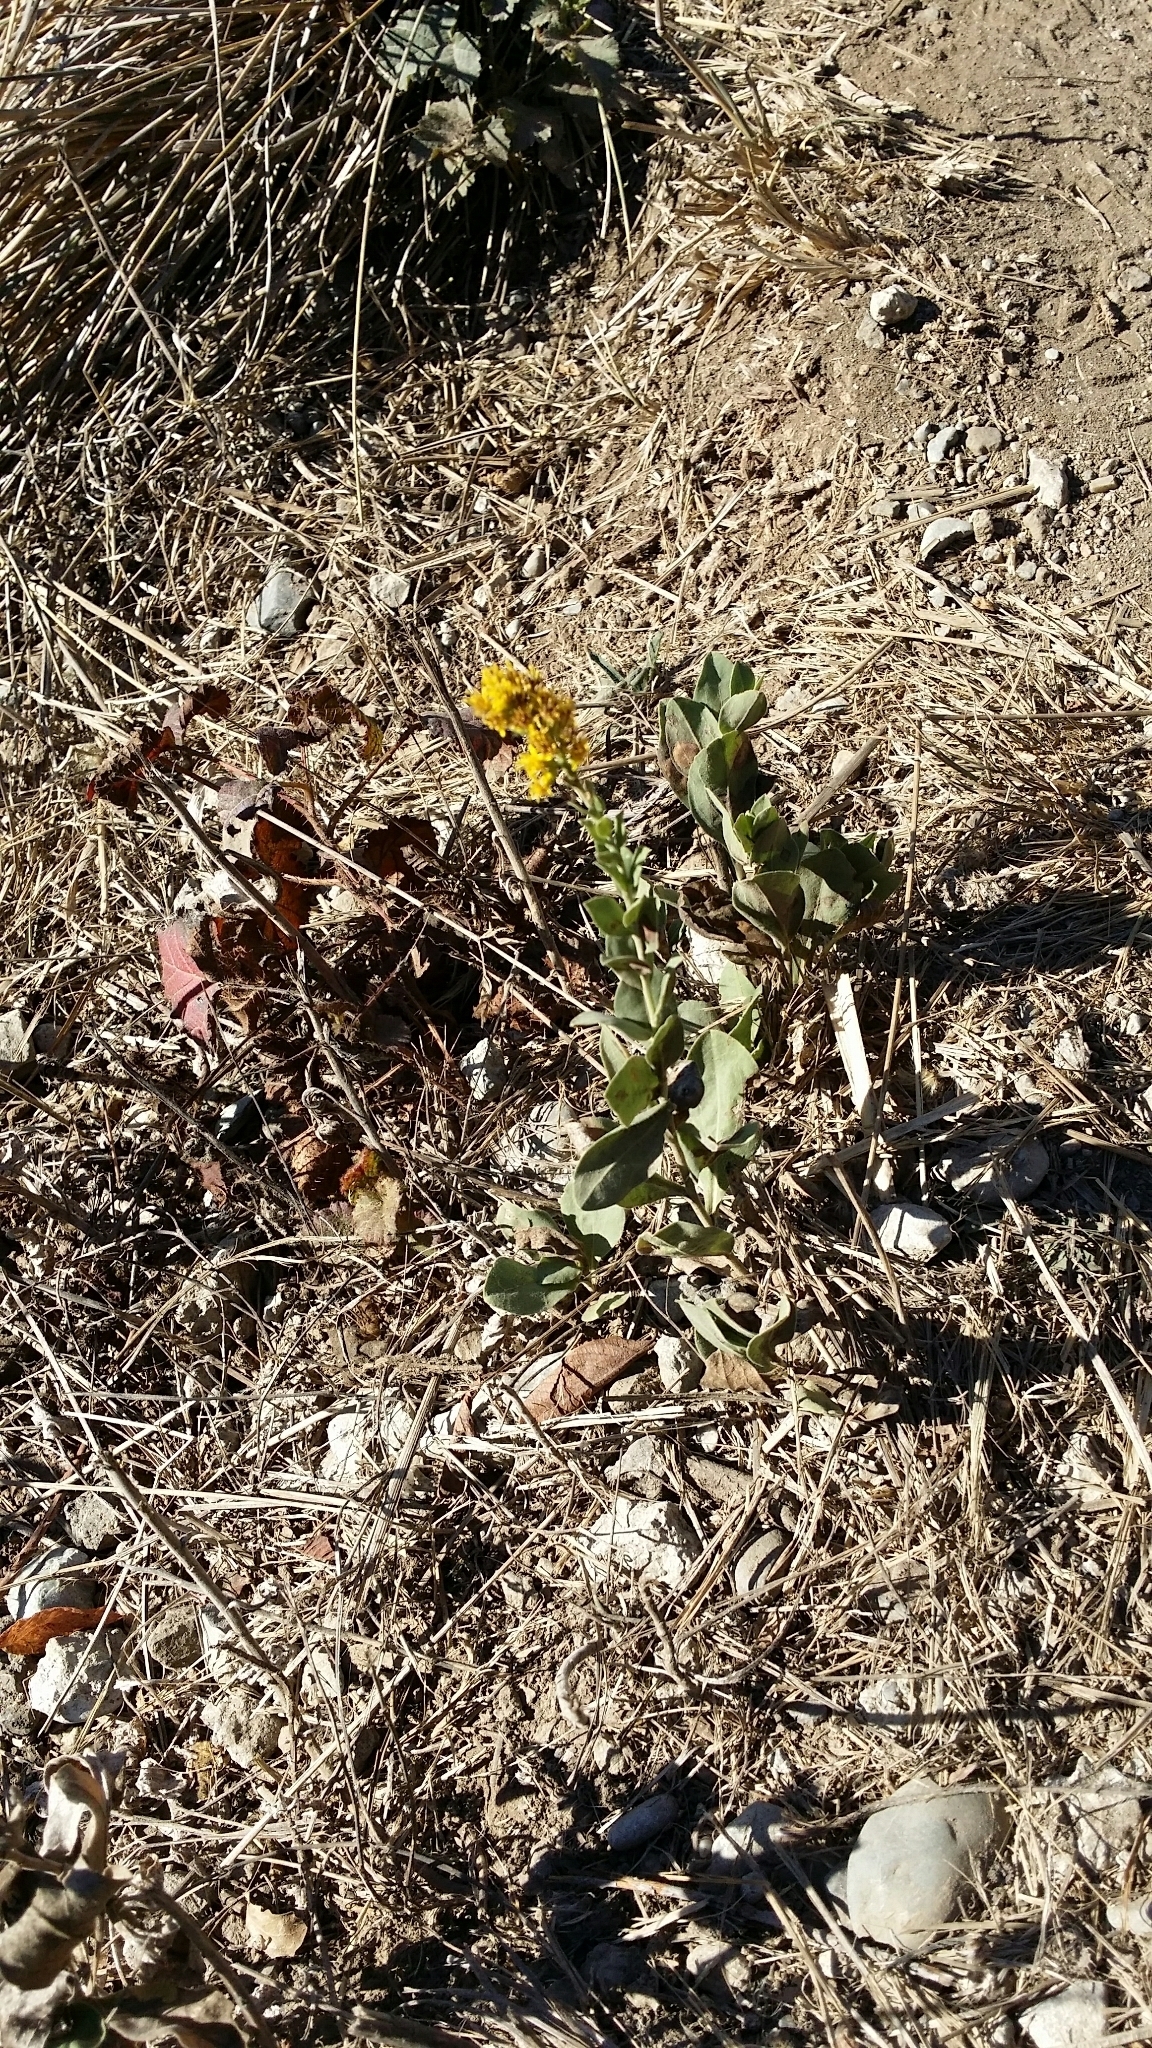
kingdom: Plantae
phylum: Tracheophyta
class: Magnoliopsida
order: Asterales
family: Asteraceae
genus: Solidago
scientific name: Solidago spathulata
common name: Coast goldenrod
